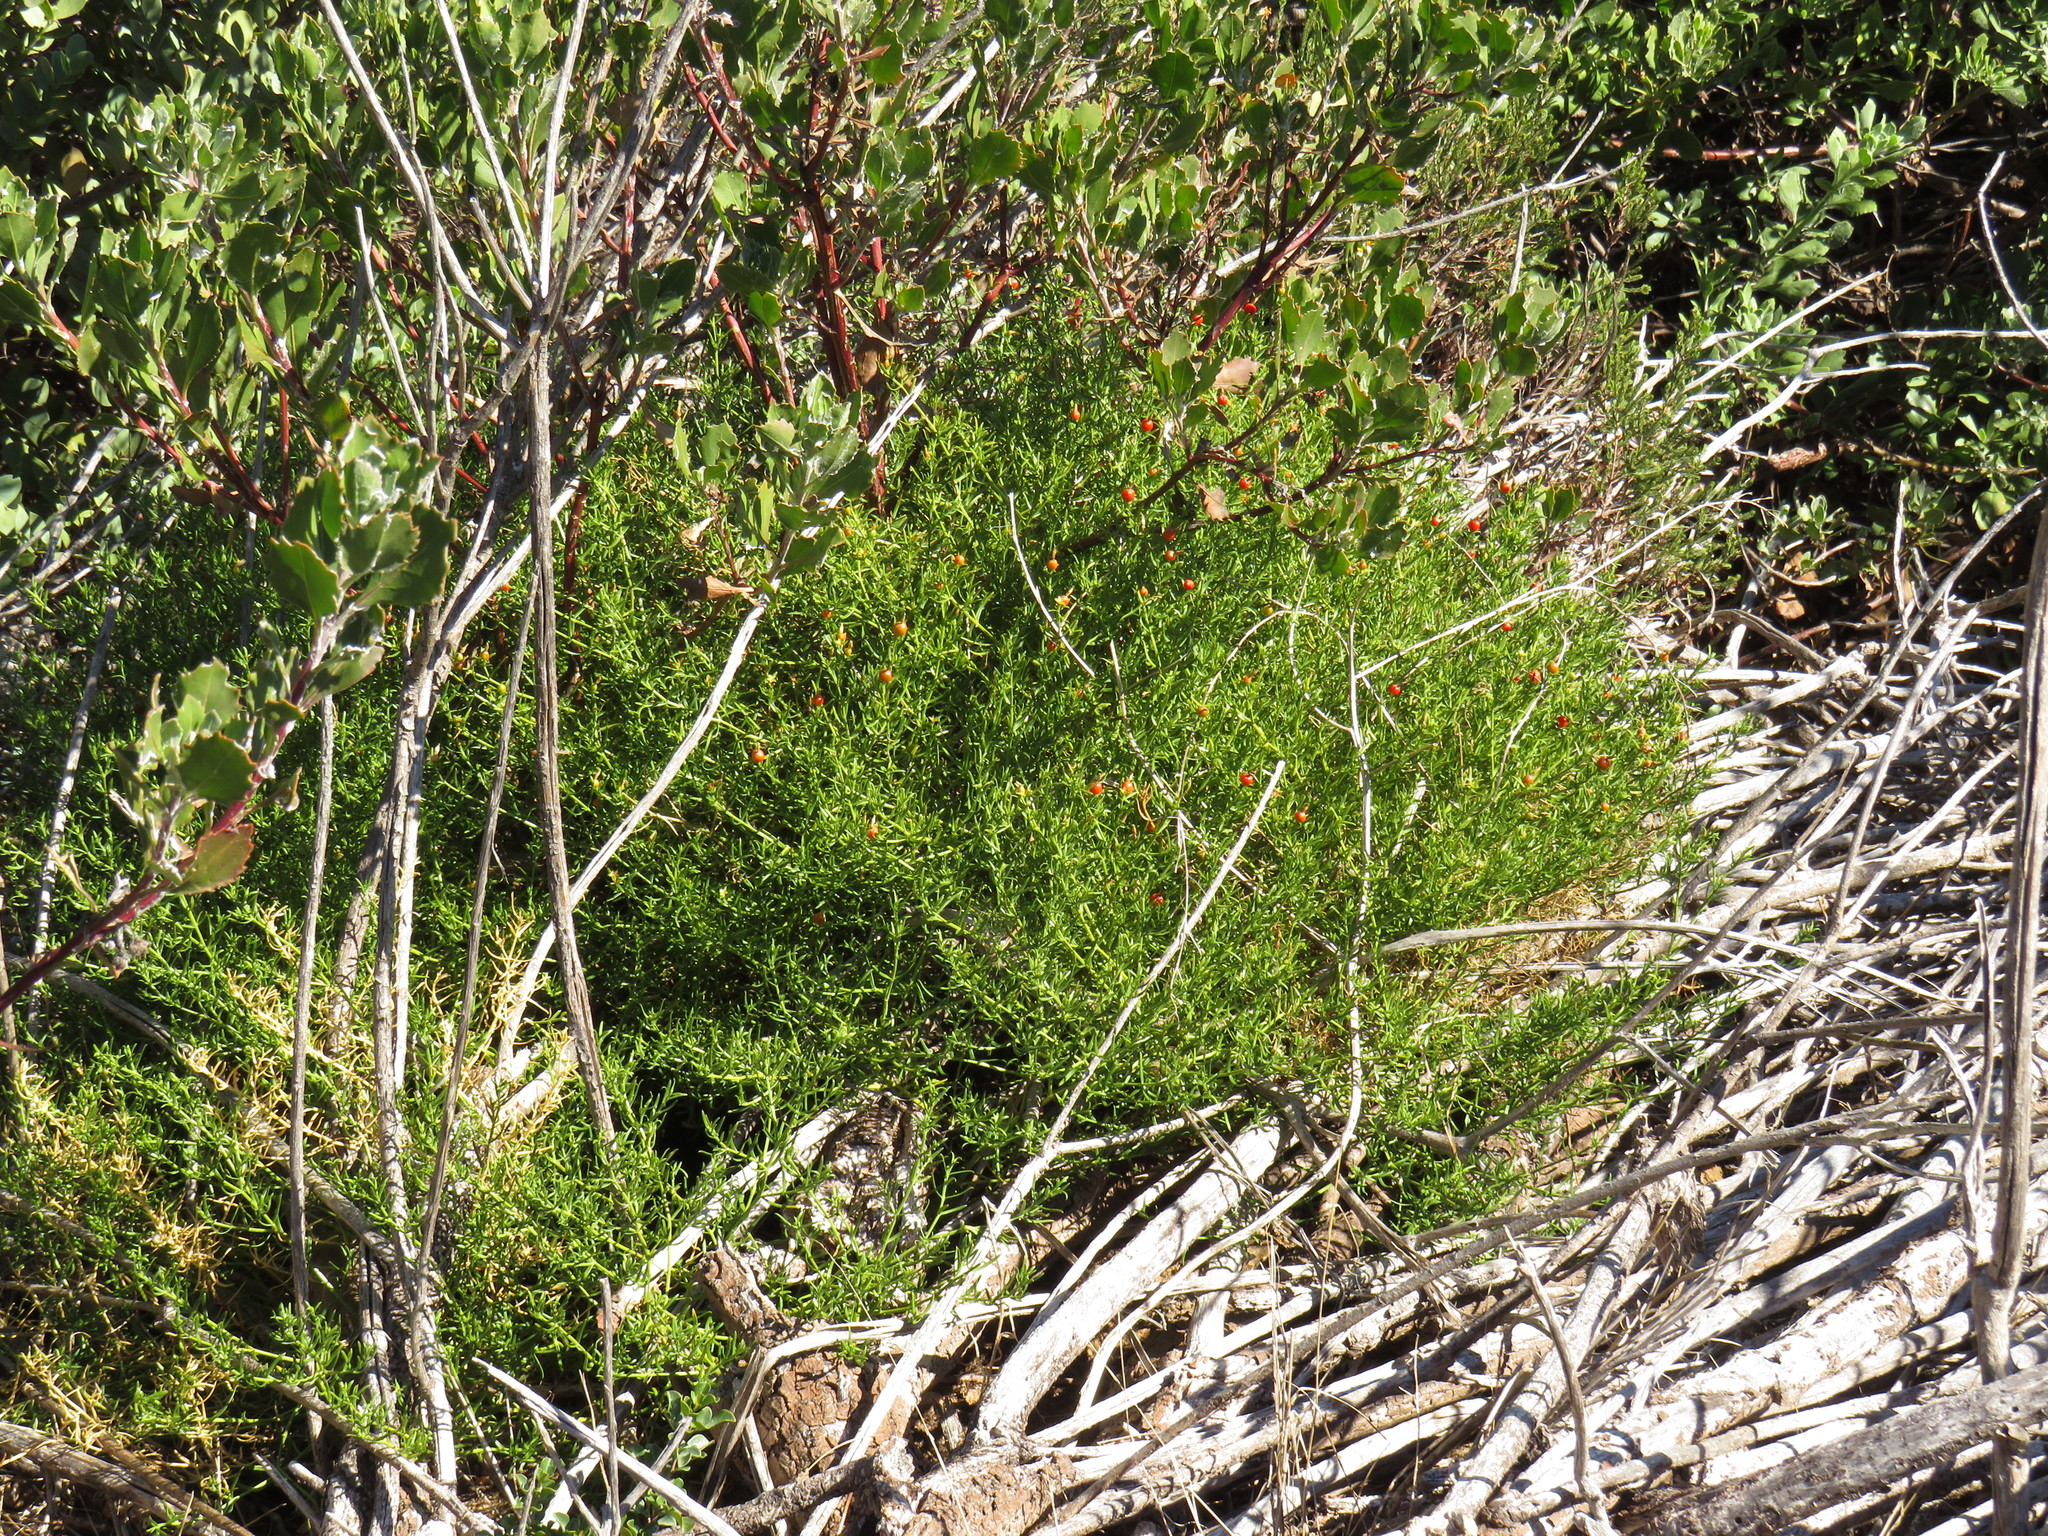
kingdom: Plantae
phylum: Tracheophyta
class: Magnoliopsida
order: Gentianales
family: Gentianaceae
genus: Chironia
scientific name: Chironia baccifera
